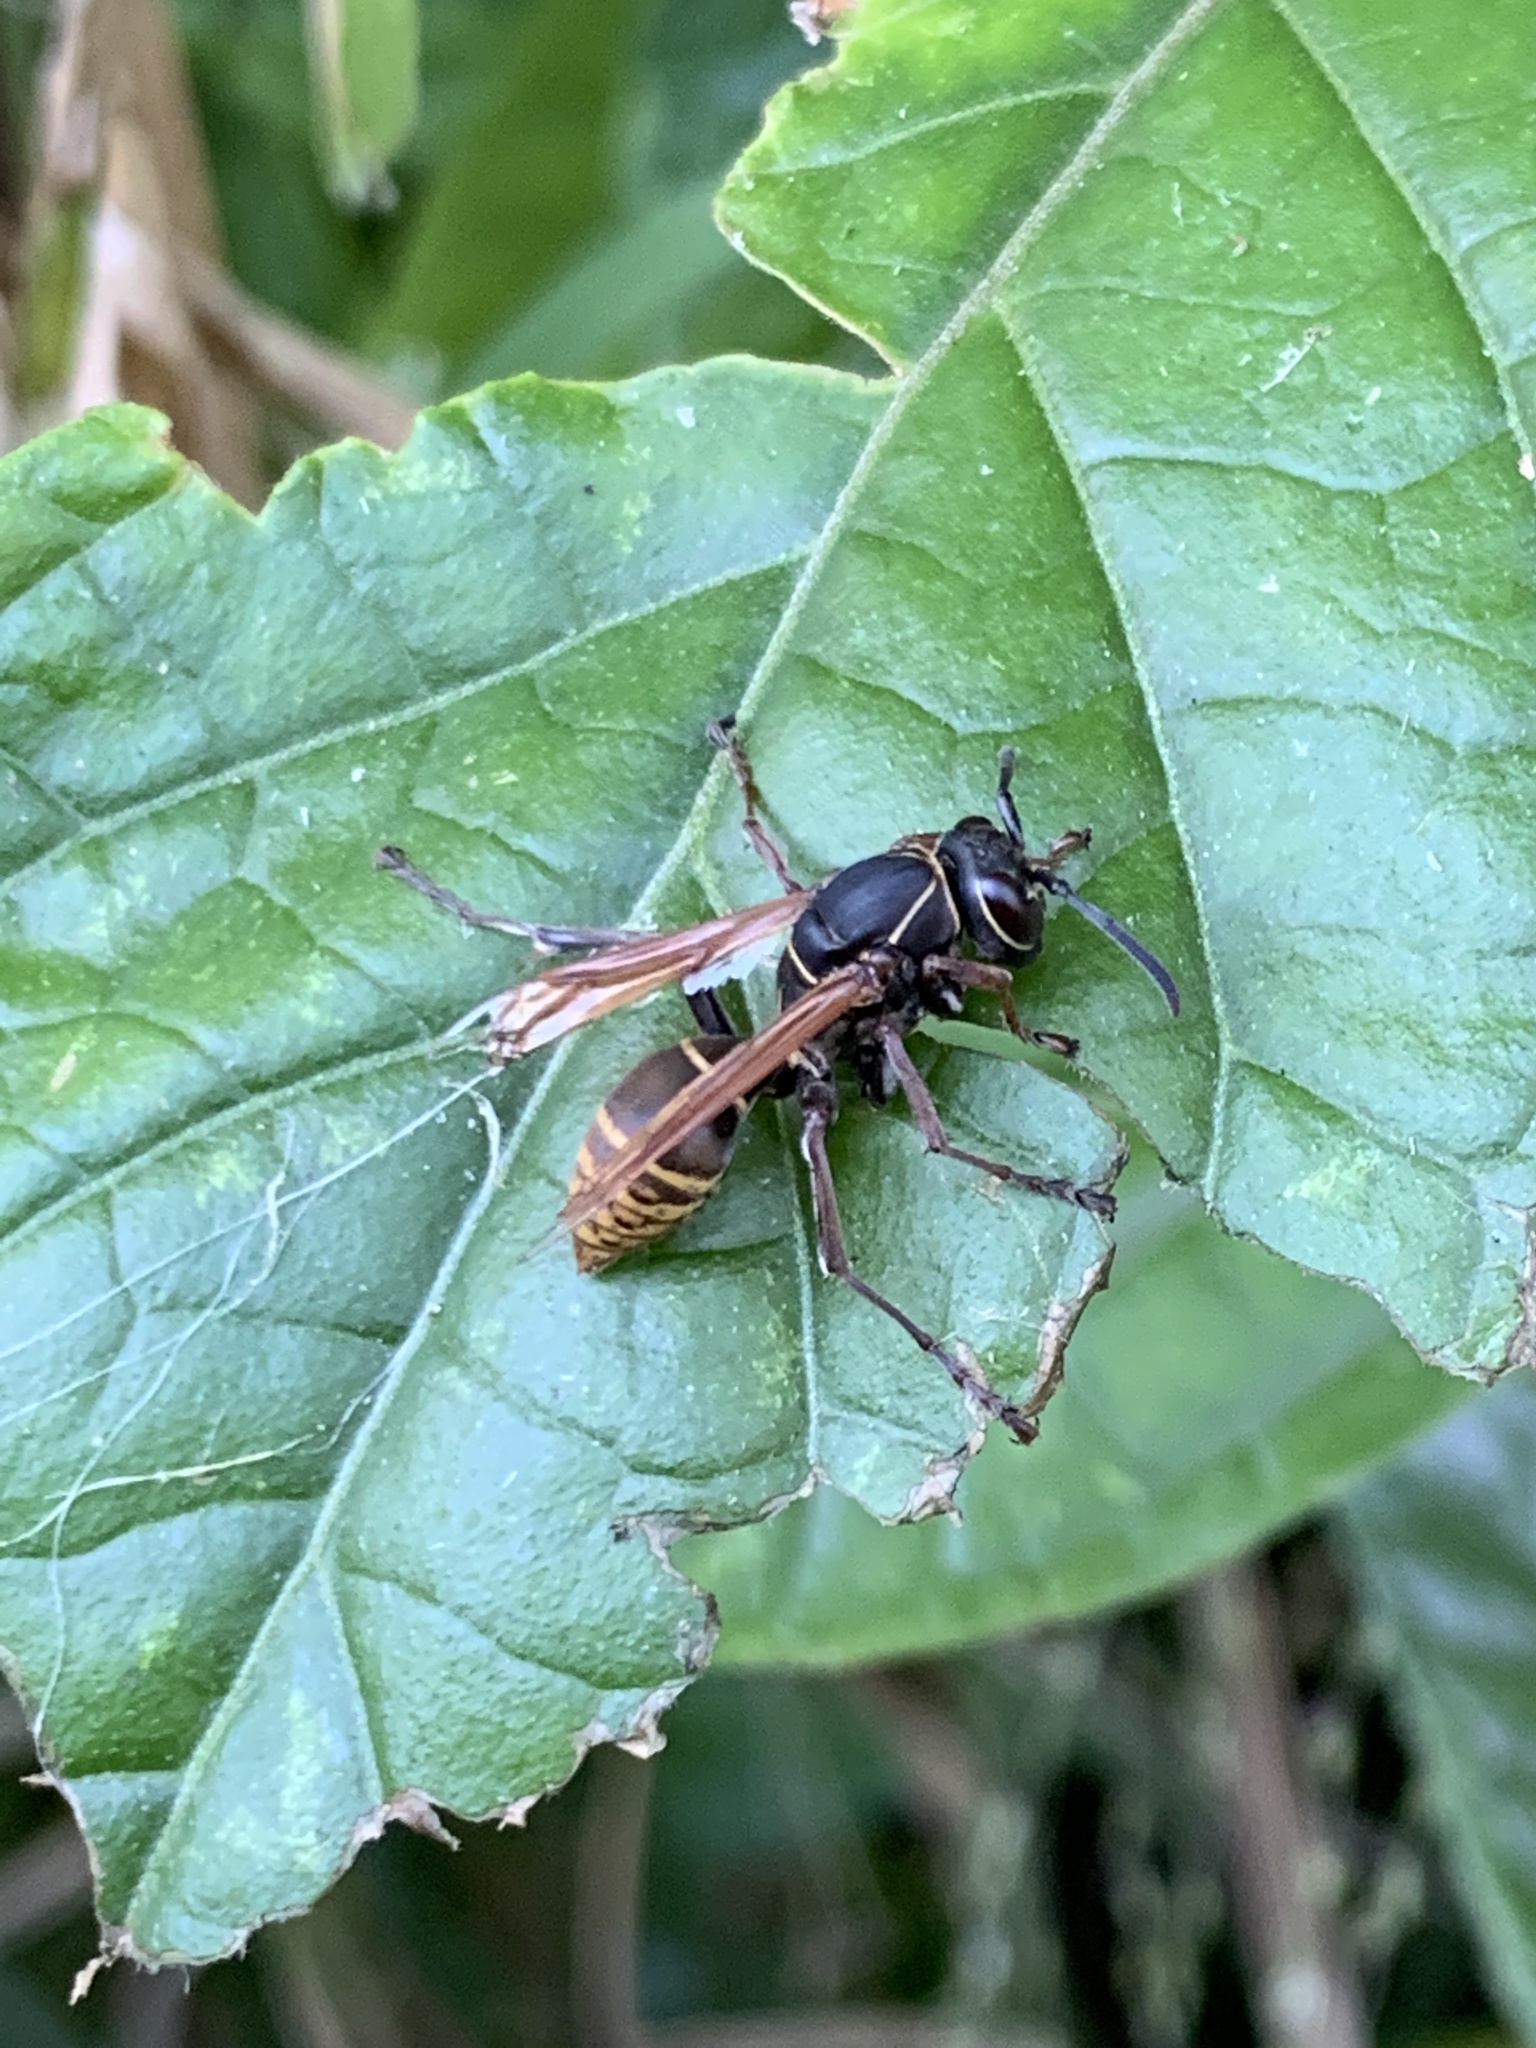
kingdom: Animalia
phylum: Arthropoda
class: Insecta
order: Hymenoptera
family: Eumenidae
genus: Polistes
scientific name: Polistes cinerascens
